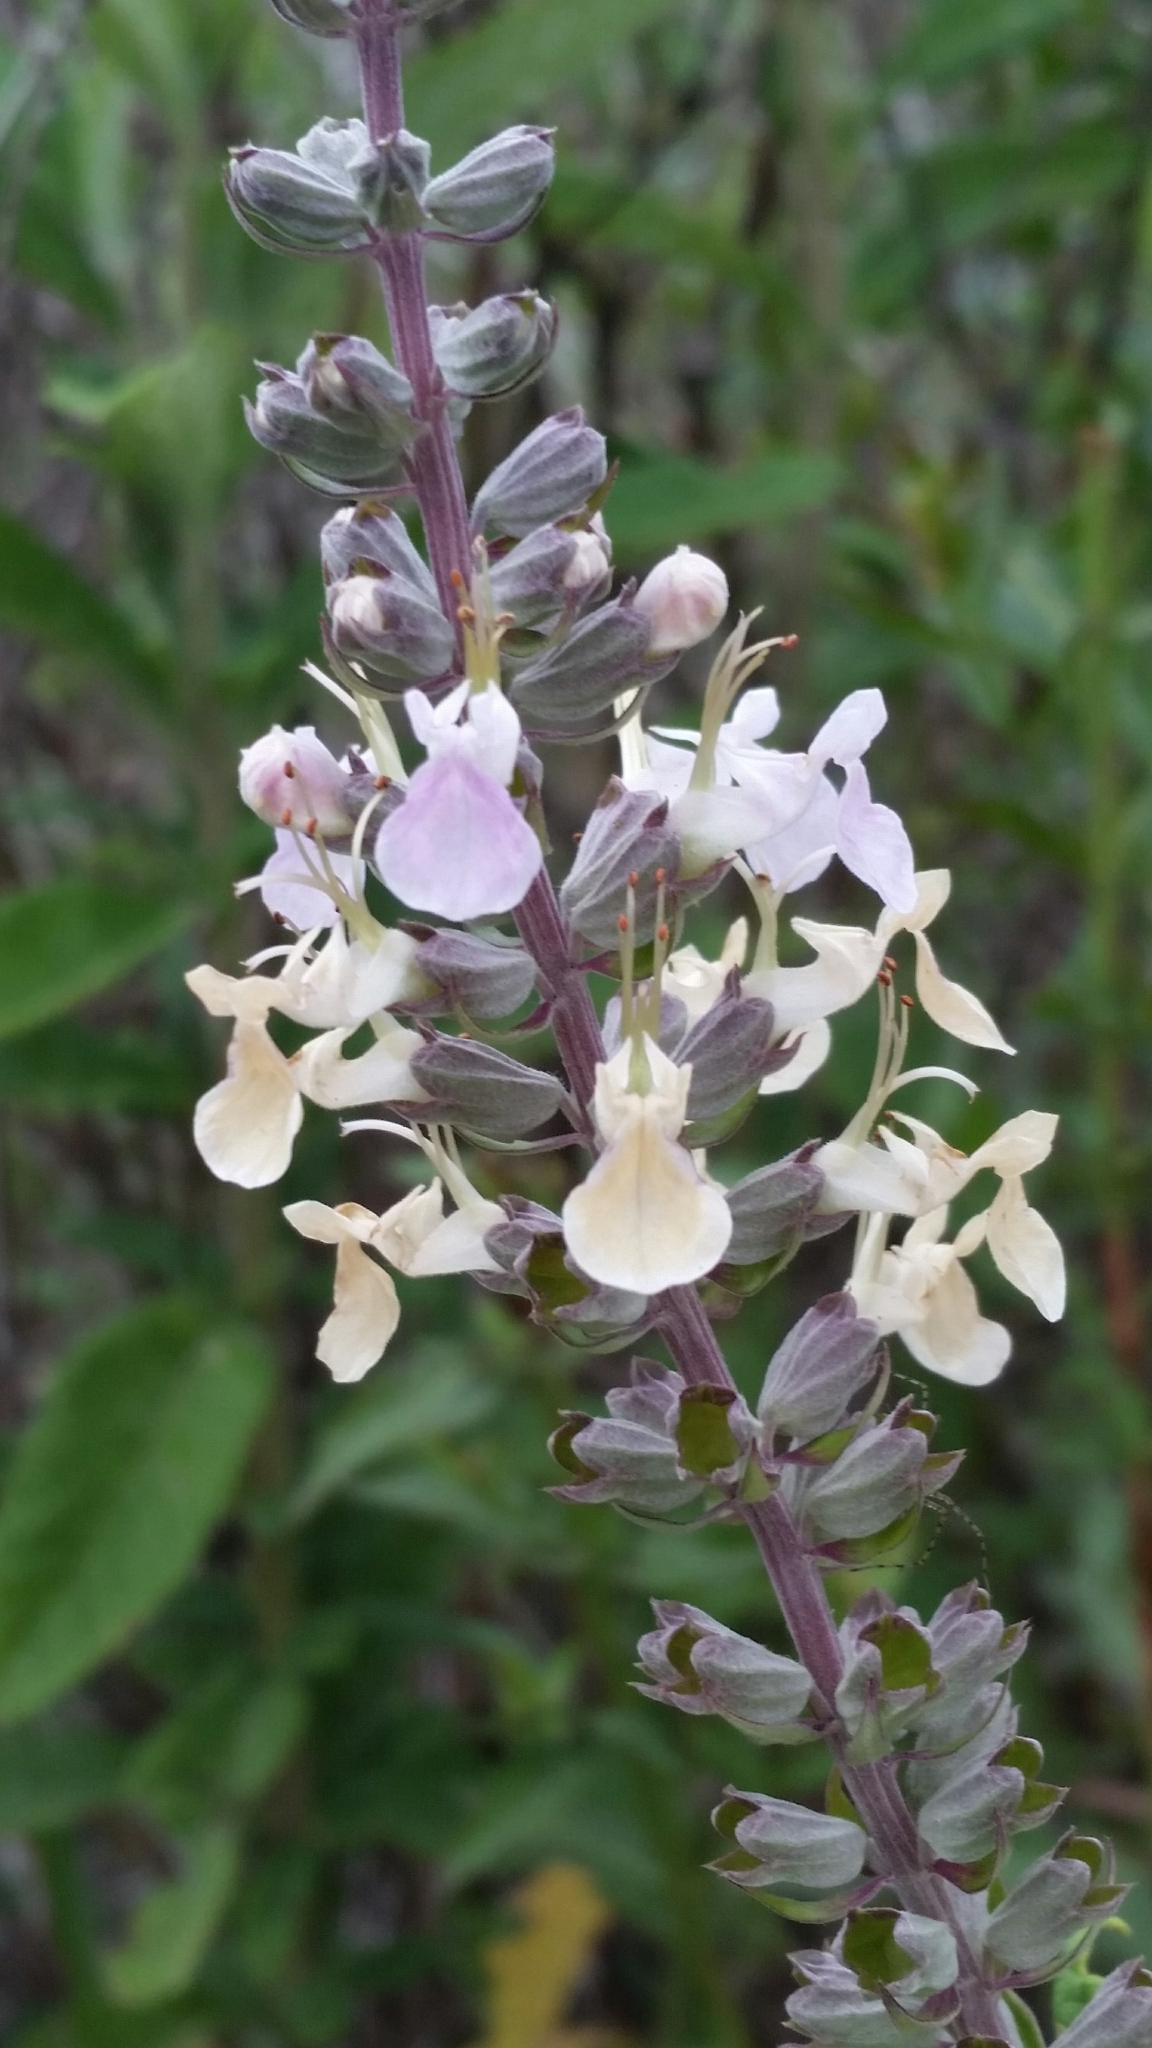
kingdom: Plantae
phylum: Tracheophyta
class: Magnoliopsida
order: Lamiales
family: Lamiaceae
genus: Teucrium
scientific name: Teucrium canadense
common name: American germander
